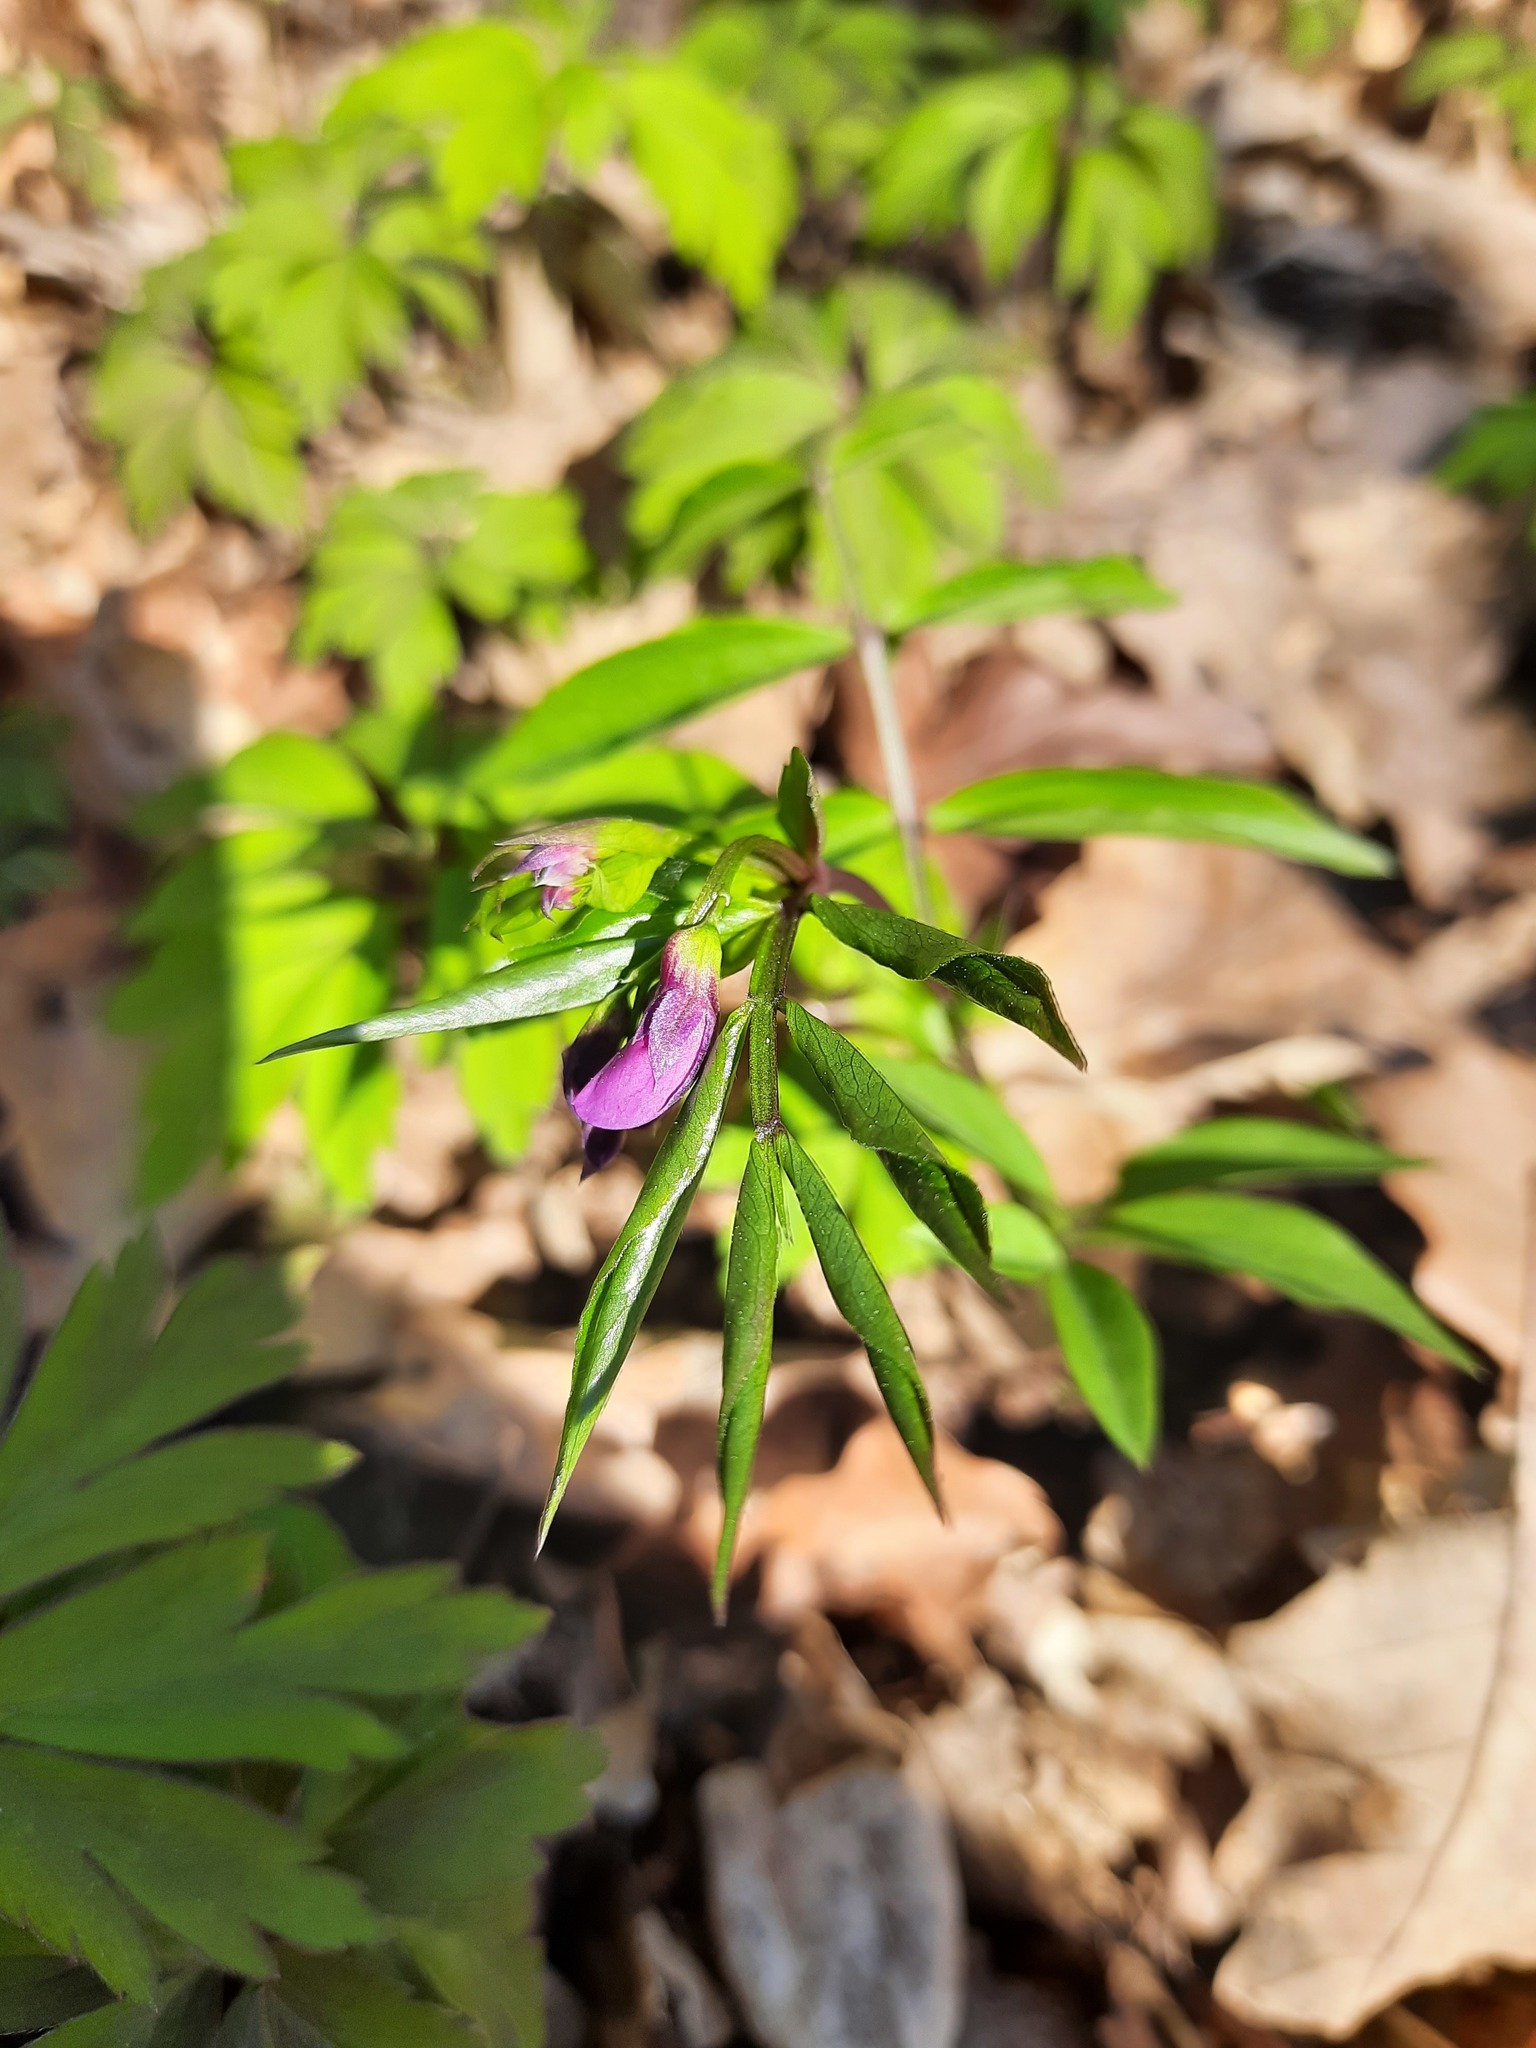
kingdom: Plantae
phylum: Tracheophyta
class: Magnoliopsida
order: Fabales
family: Fabaceae
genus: Lathyrus
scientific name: Lathyrus vernus
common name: Spring pea
